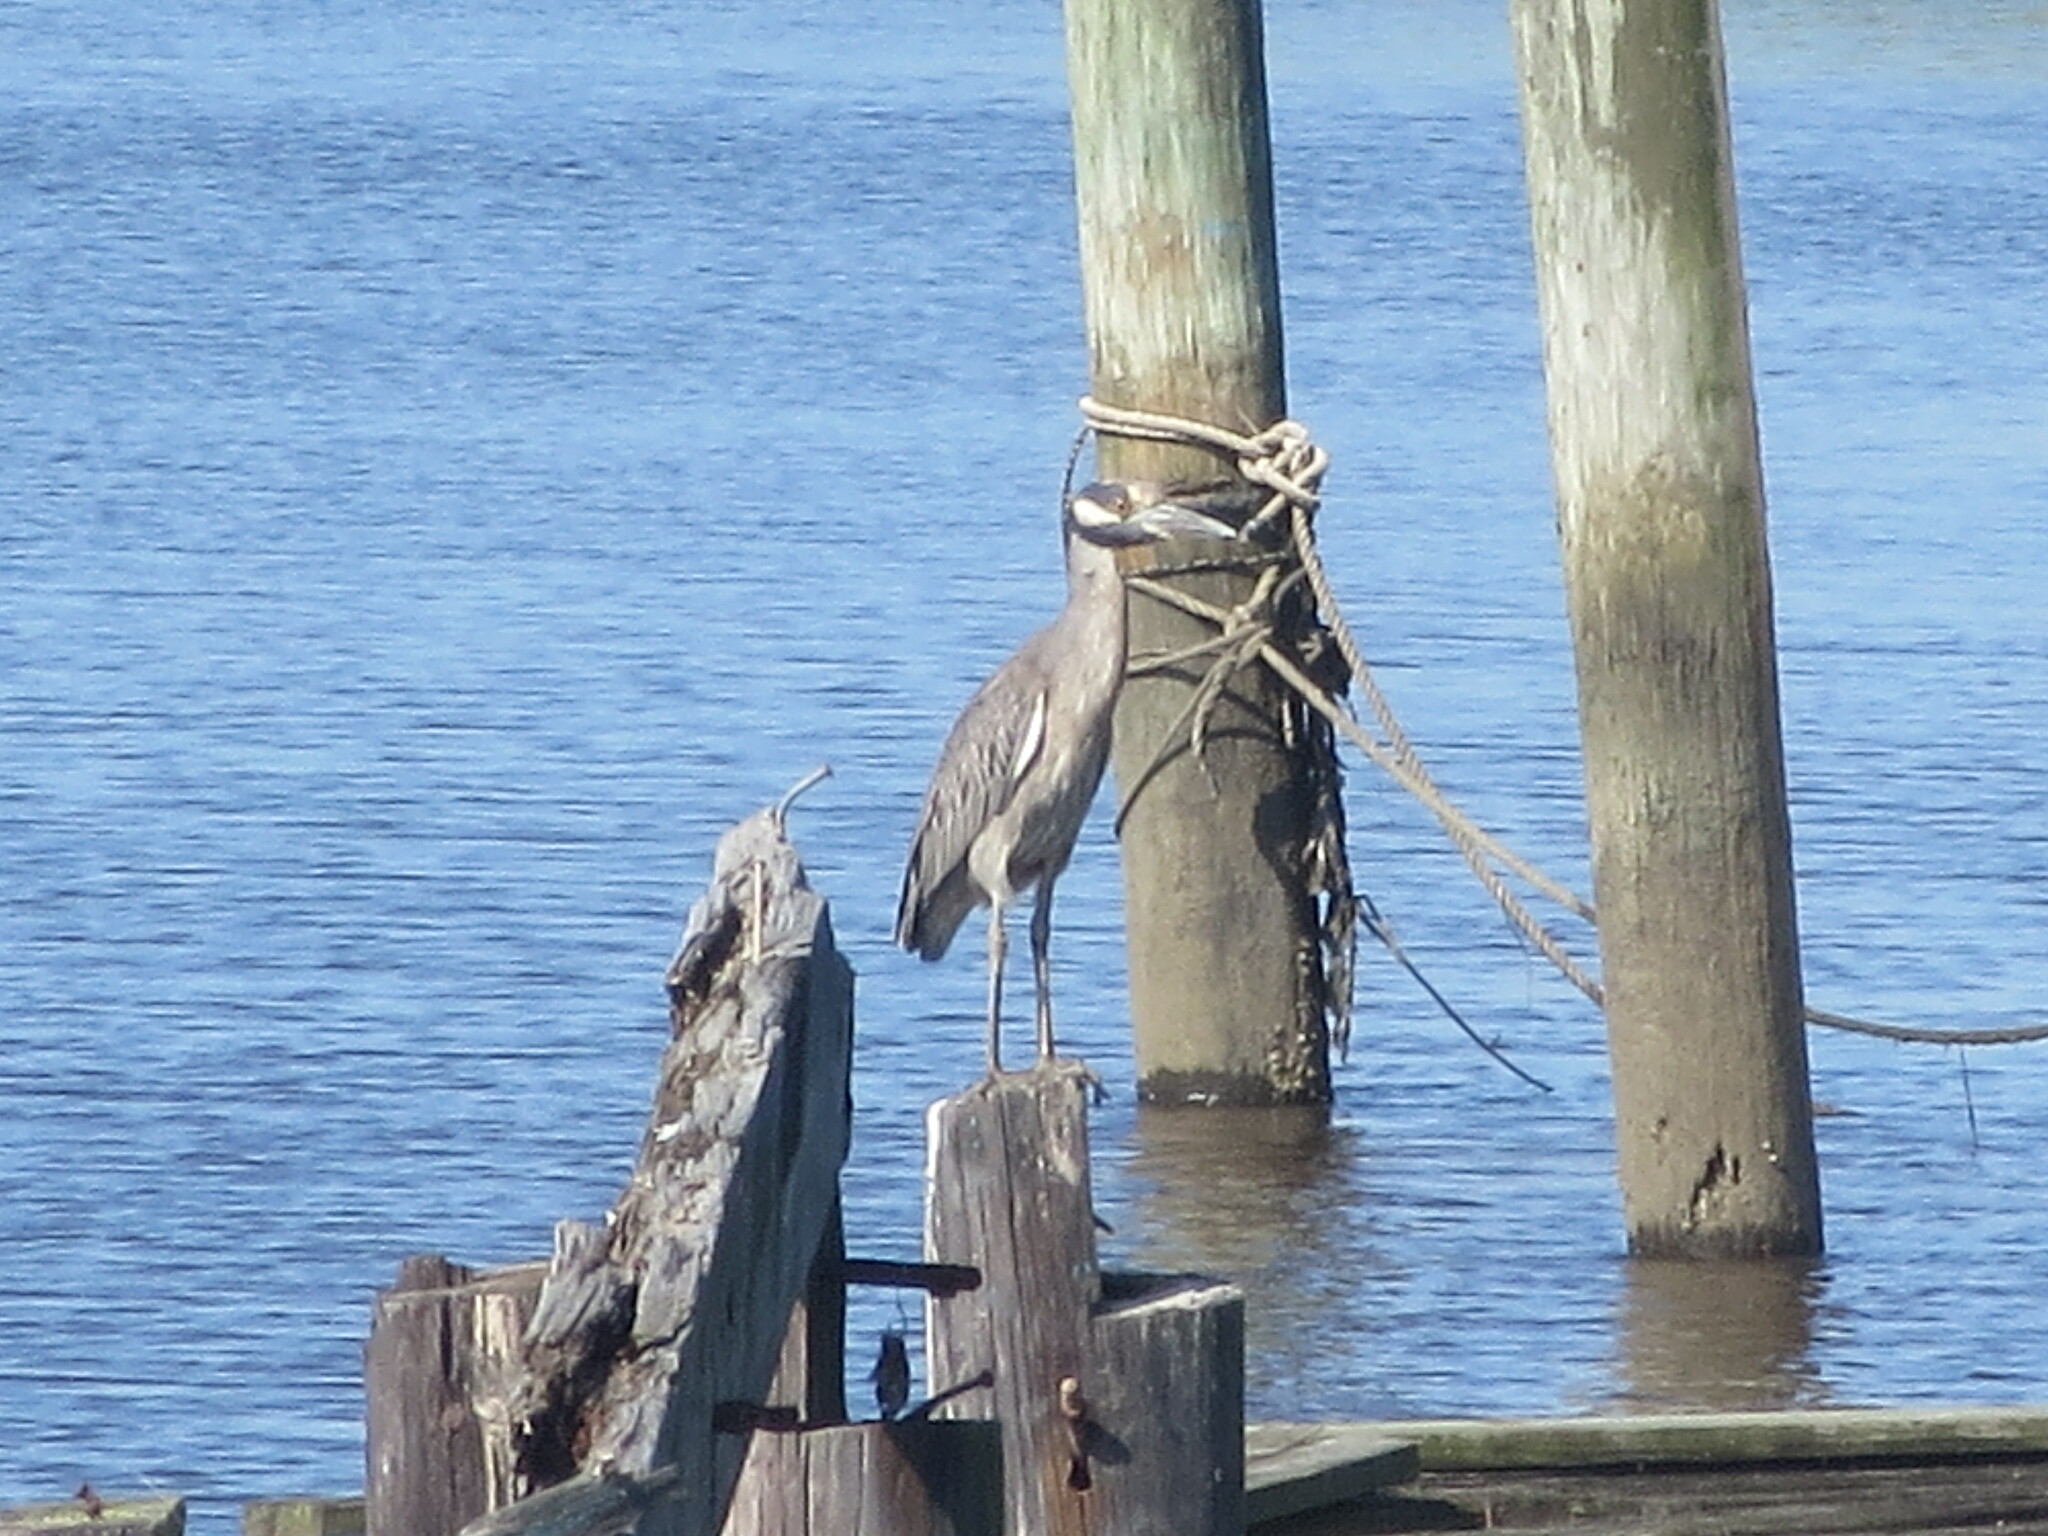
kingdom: Animalia
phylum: Chordata
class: Aves
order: Pelecaniformes
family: Ardeidae
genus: Nyctanassa
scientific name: Nyctanassa violacea
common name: Yellow-crowned night heron
